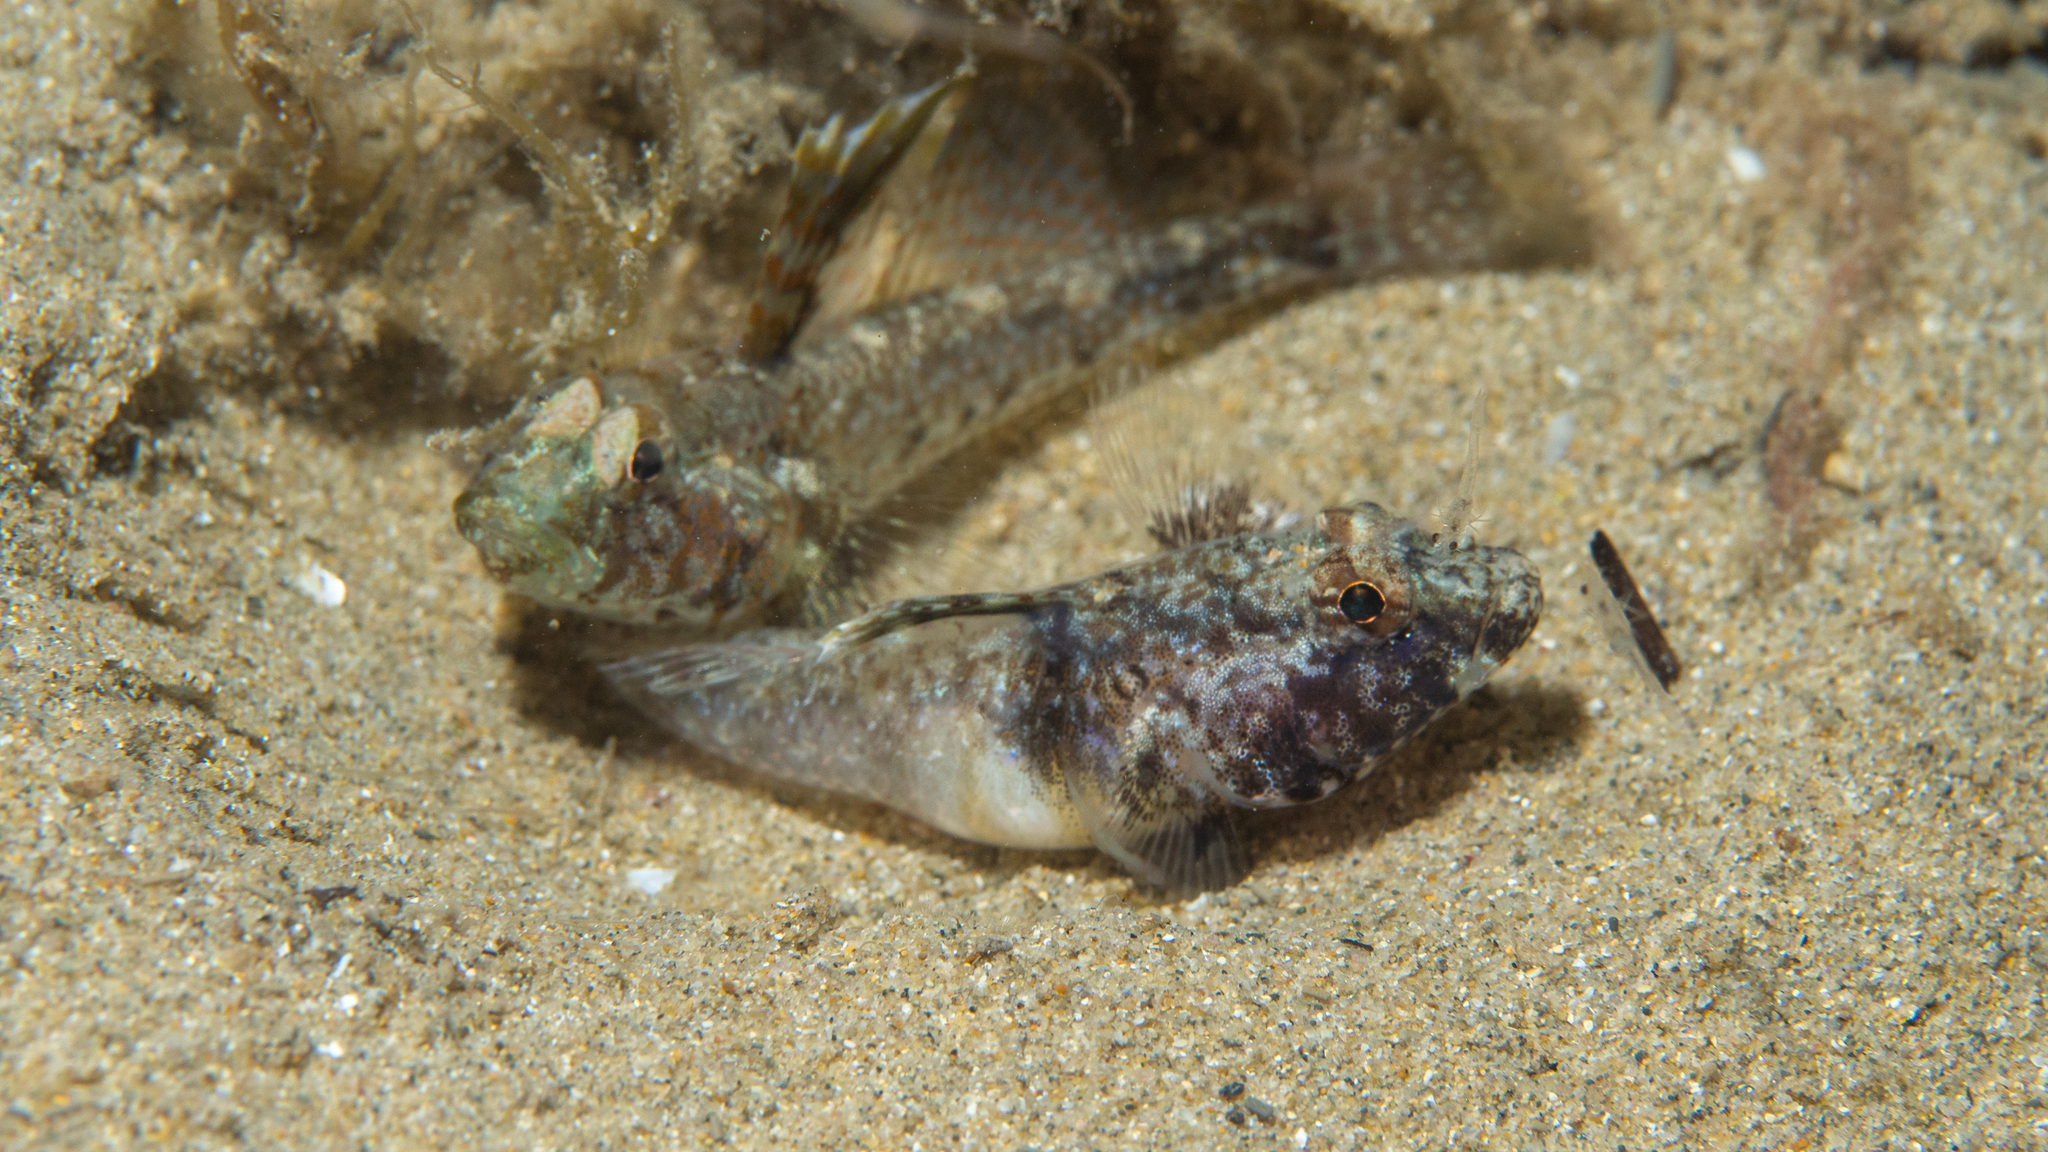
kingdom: Animalia
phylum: Chordata
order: Perciformes
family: Gobiidae
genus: Nesogobius
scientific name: Nesogobius pulchellus
